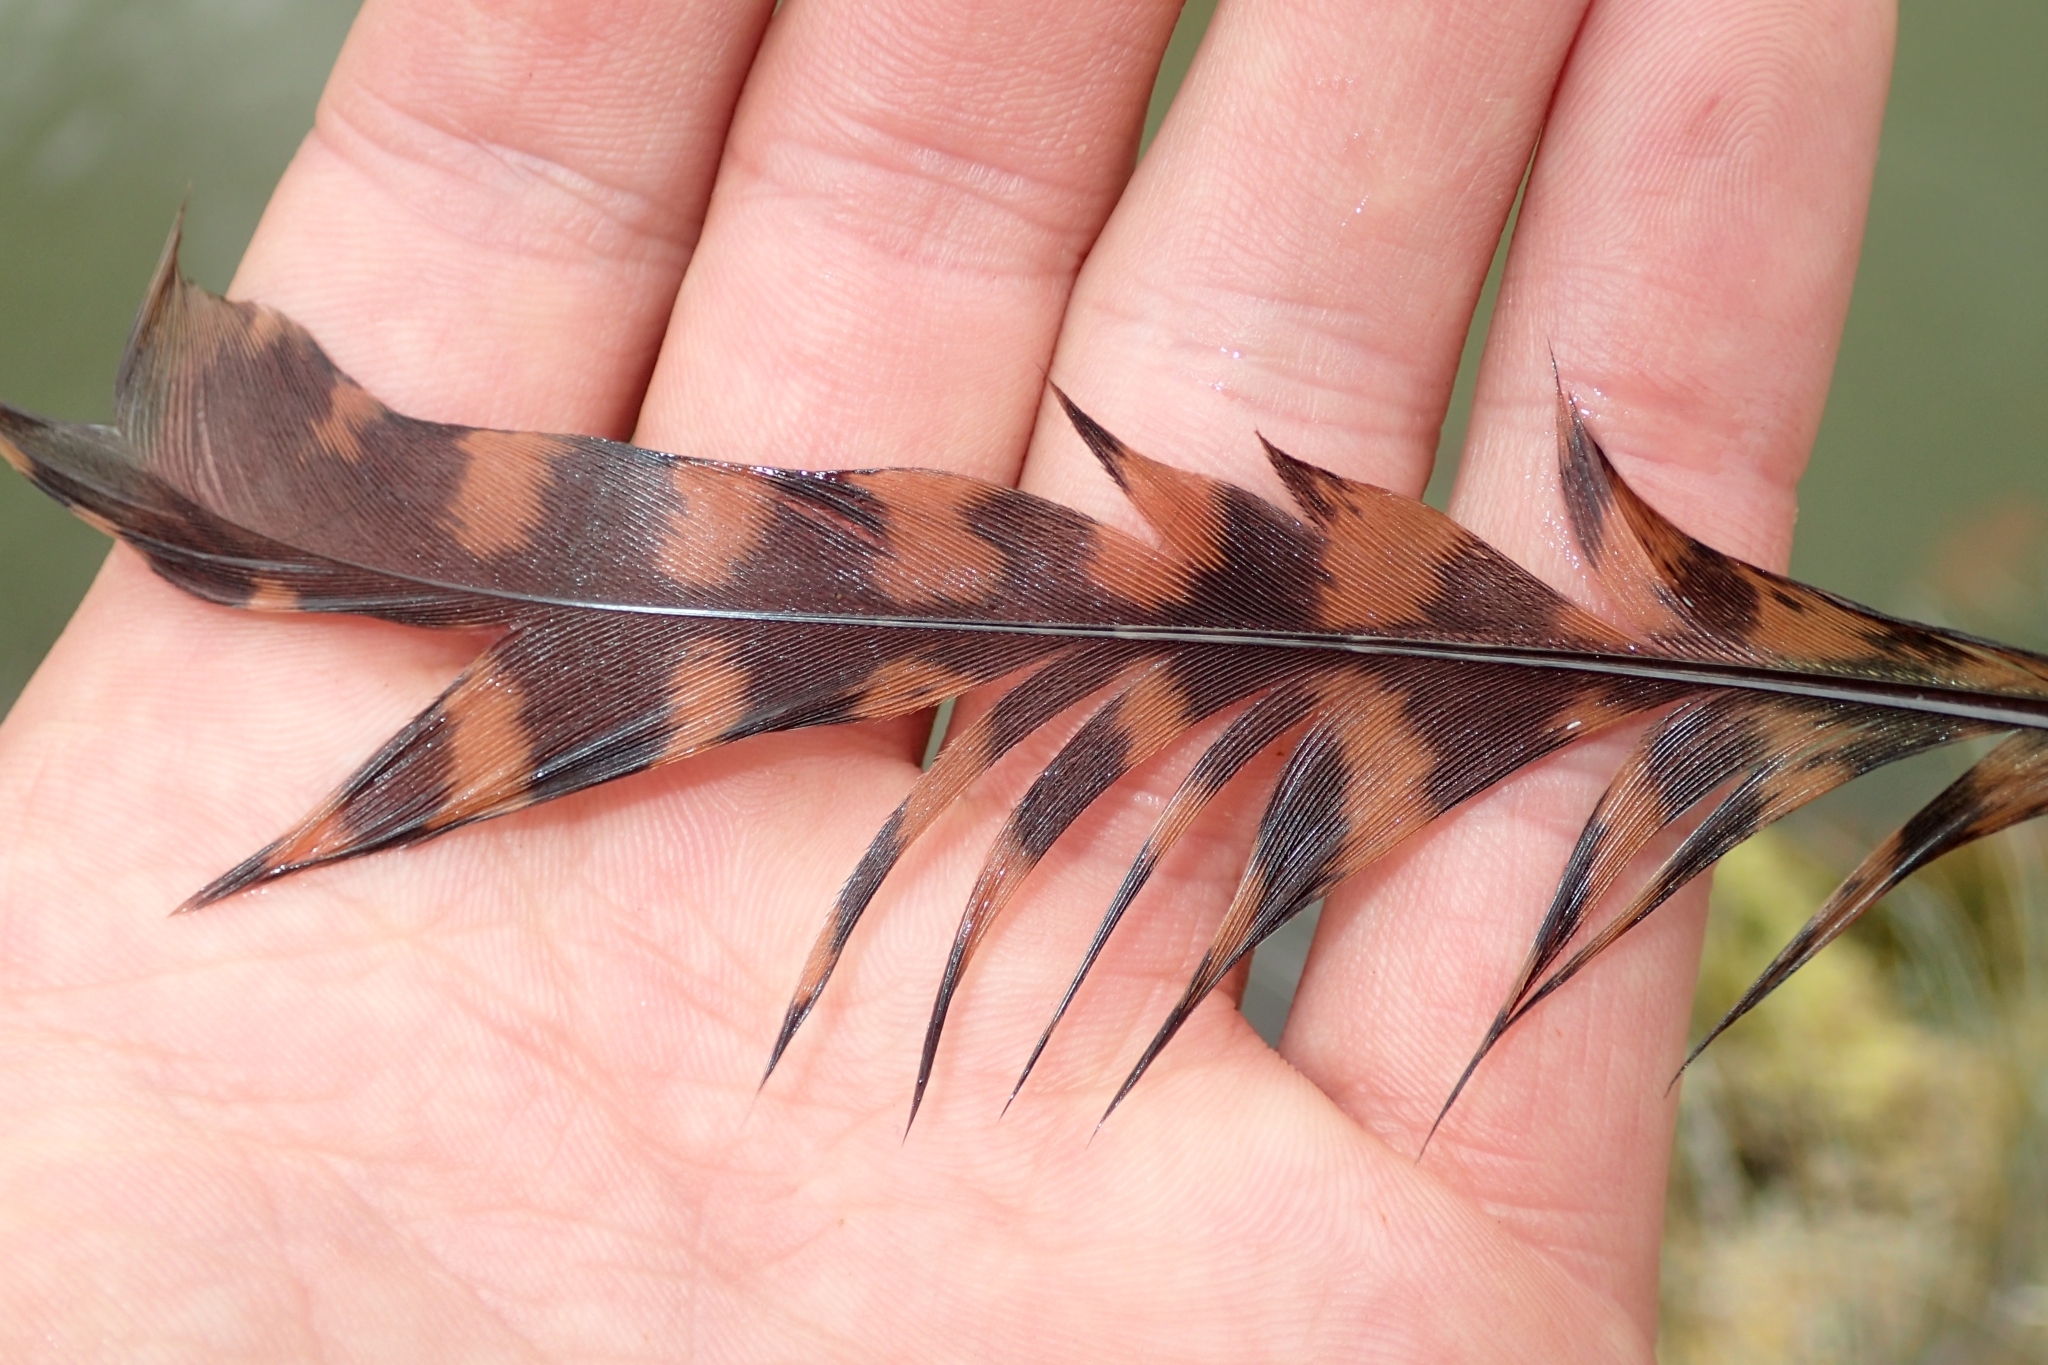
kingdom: Animalia
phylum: Chordata
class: Aves
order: Gruiformes
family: Rallidae
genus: Gallirallus
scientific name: Gallirallus australis
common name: Weka
